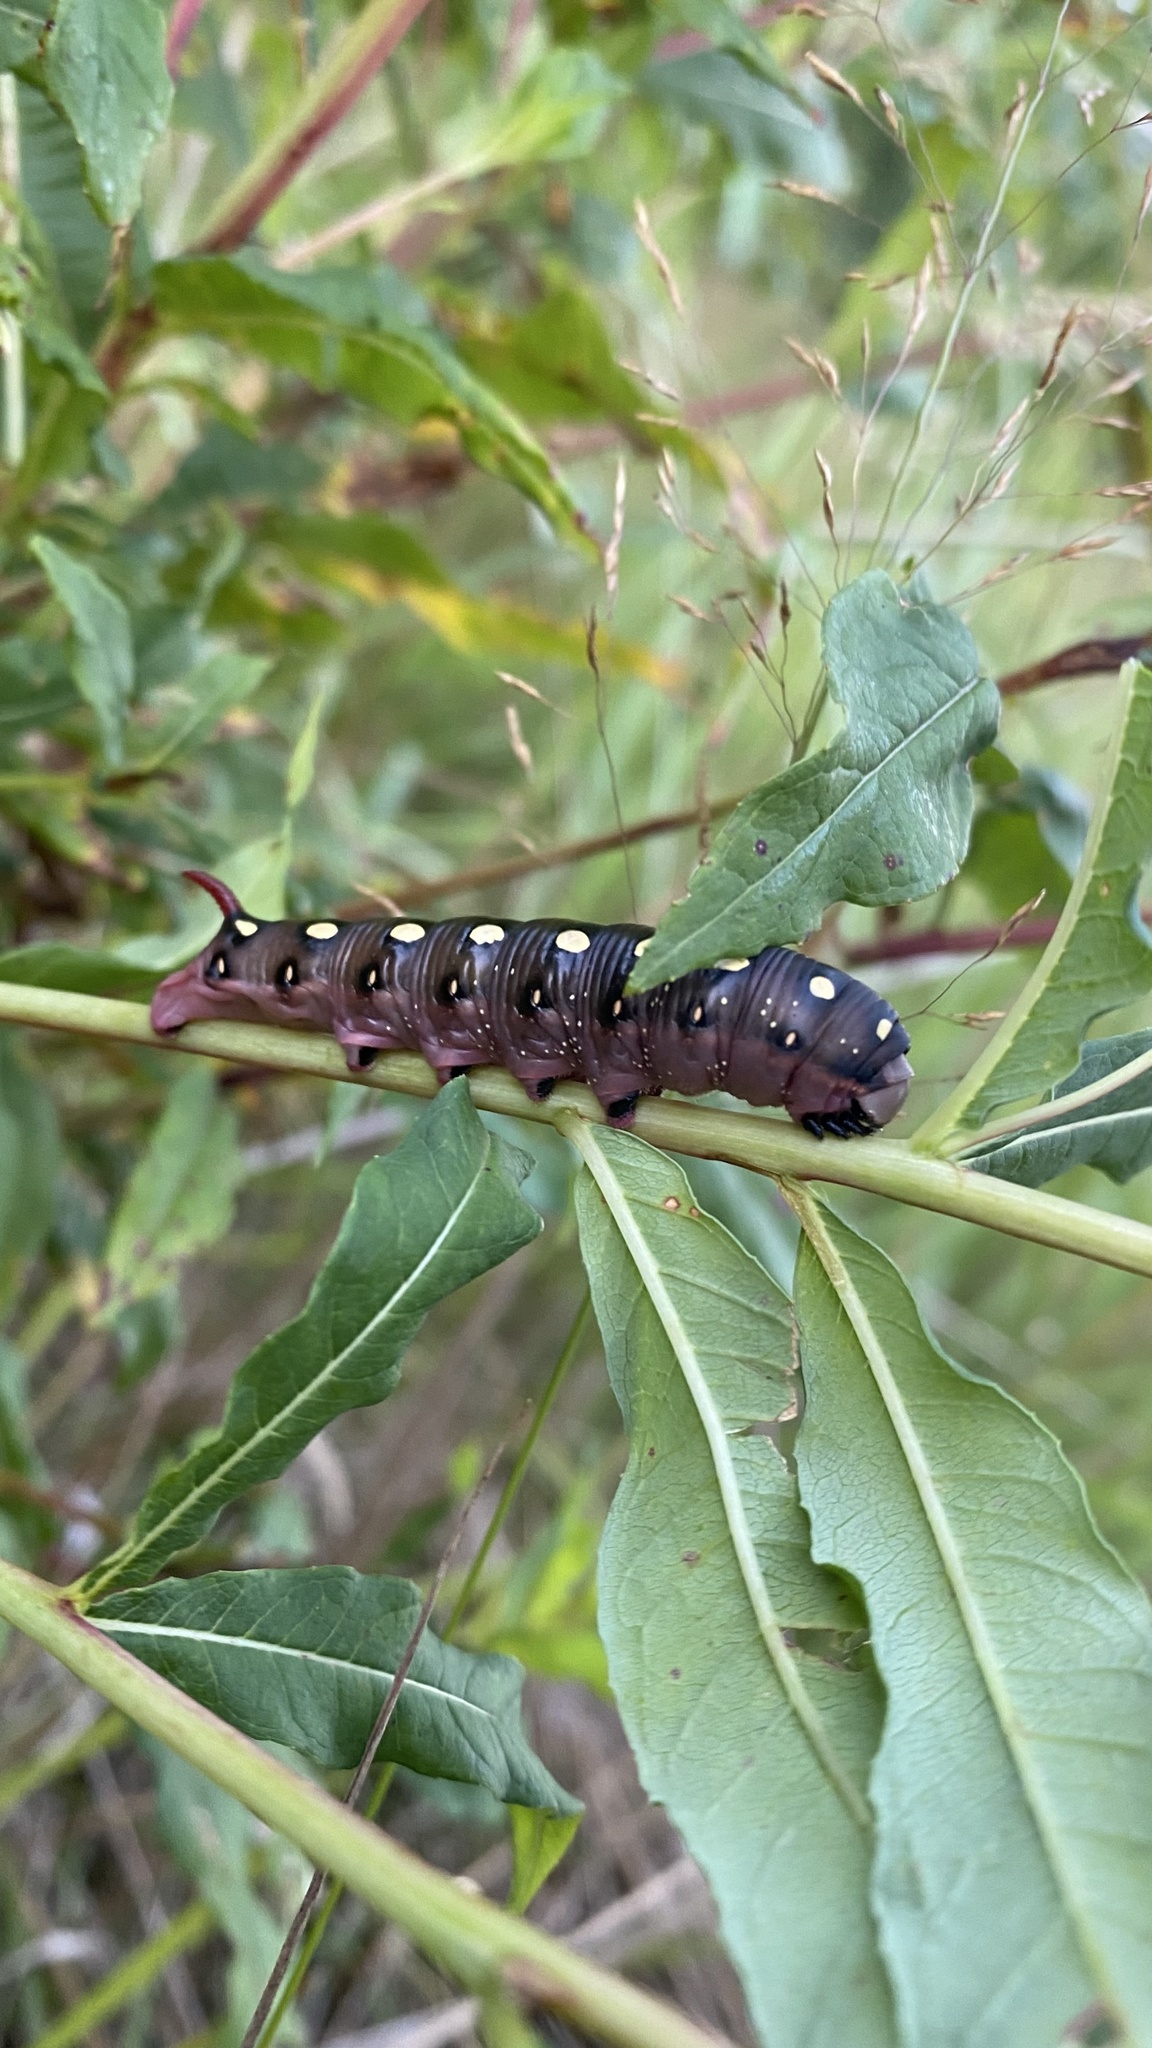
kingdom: Animalia
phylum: Arthropoda
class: Insecta
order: Lepidoptera
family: Sphingidae
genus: Hyles
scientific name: Hyles gallii
